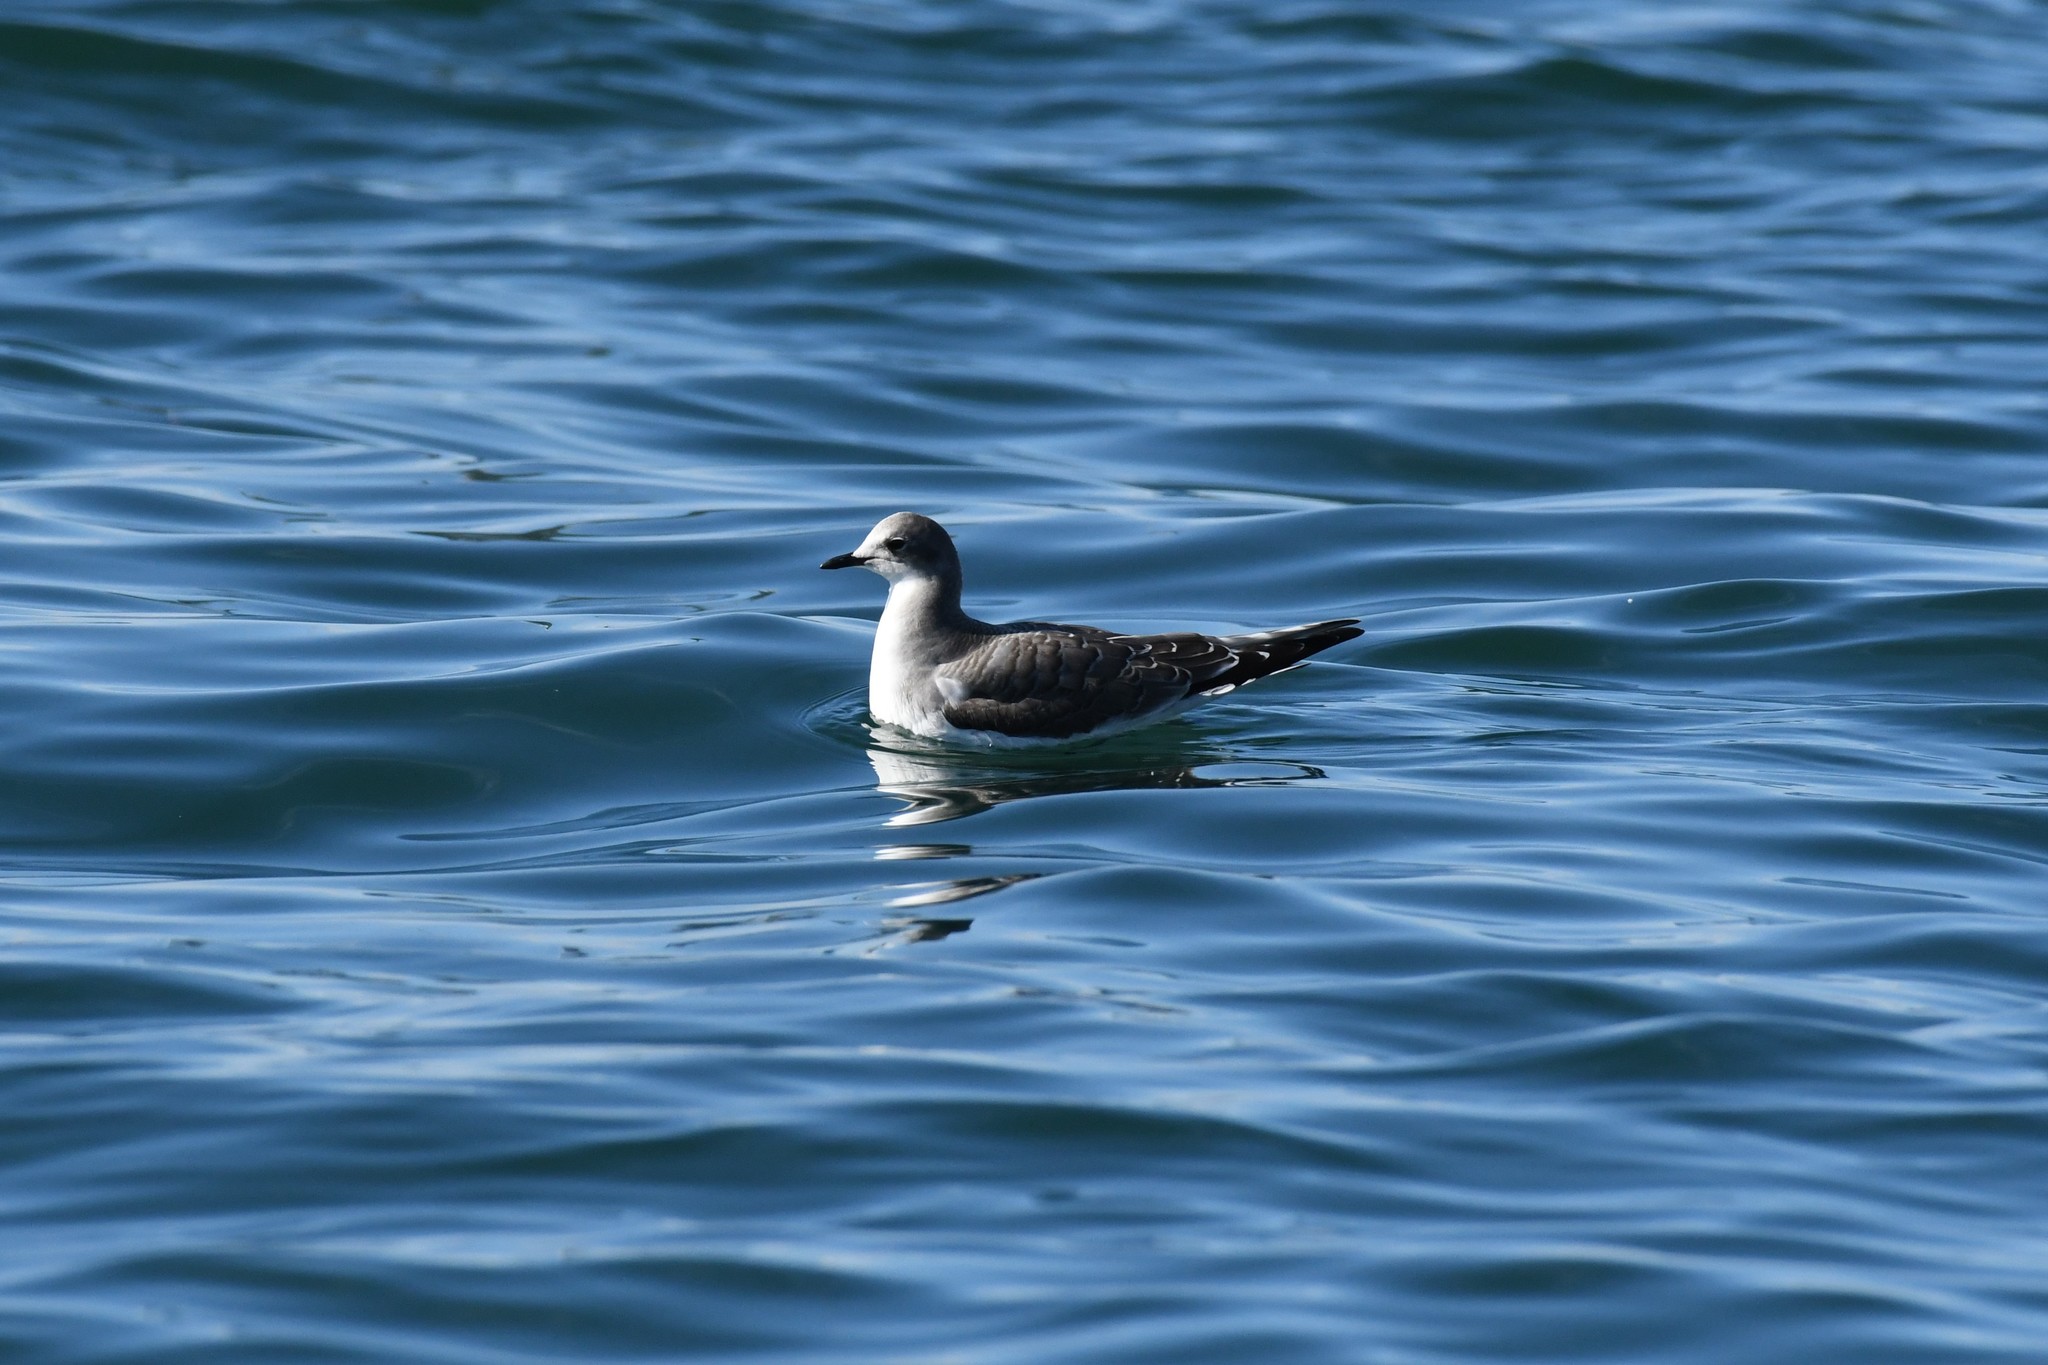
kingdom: Animalia
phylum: Chordata
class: Aves
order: Charadriiformes
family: Laridae
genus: Xema
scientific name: Xema sabini
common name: Sabine's gull
